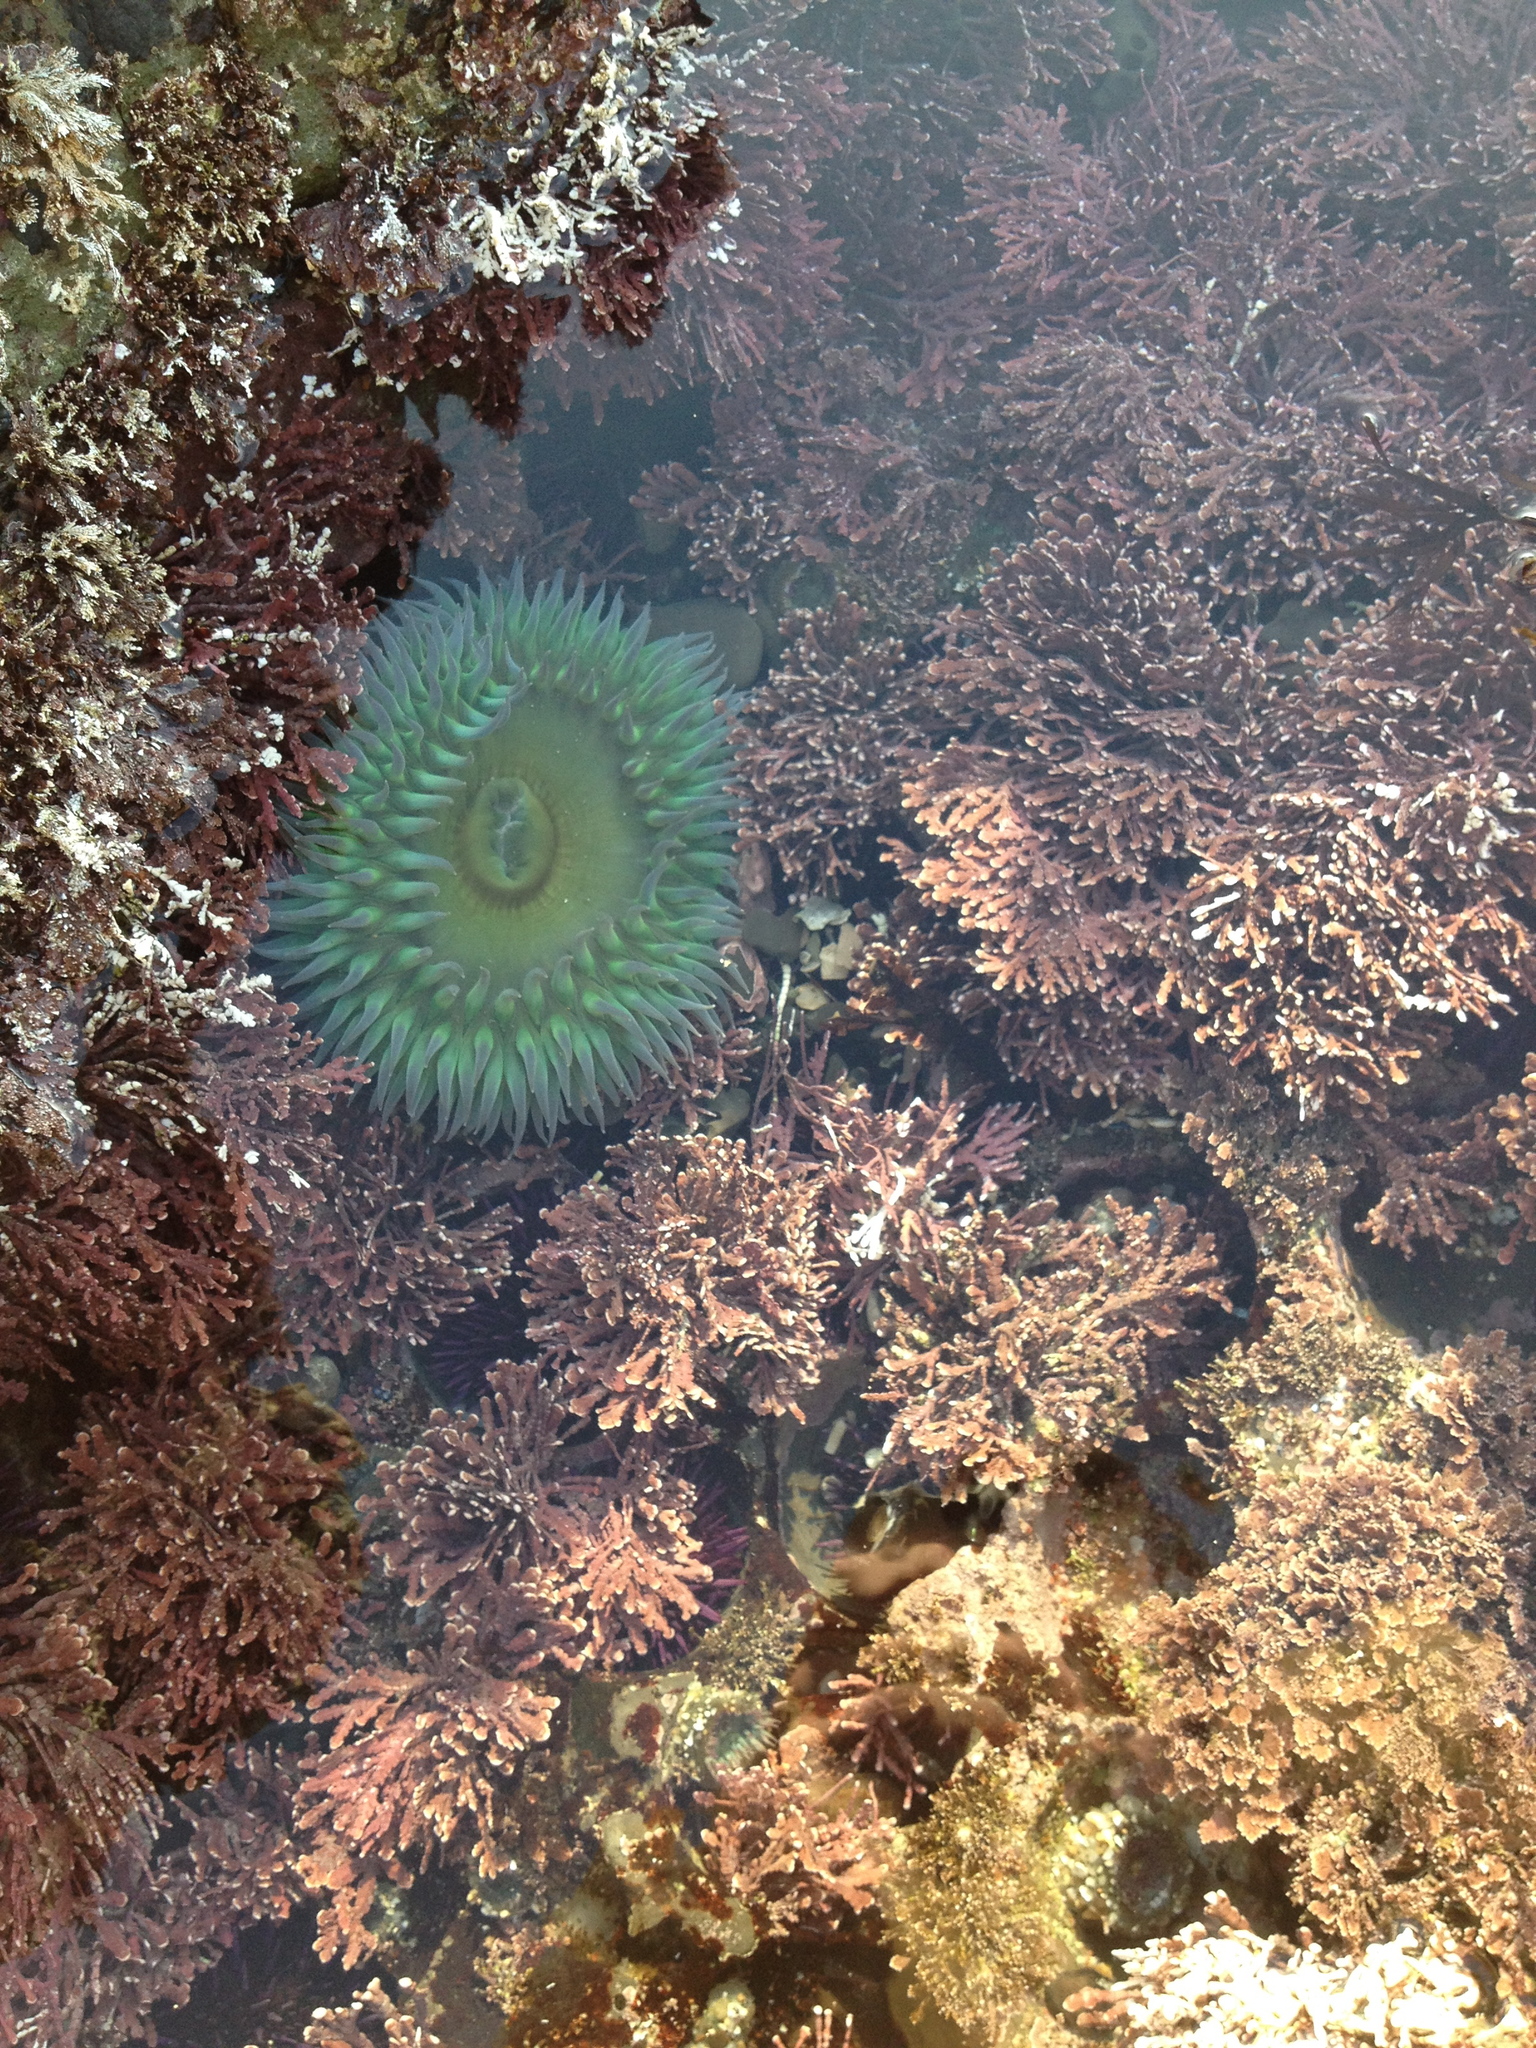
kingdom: Animalia
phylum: Cnidaria
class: Anthozoa
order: Actiniaria
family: Actiniidae
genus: Anthopleura
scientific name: Anthopleura xanthogrammica
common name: Giant green anemone
